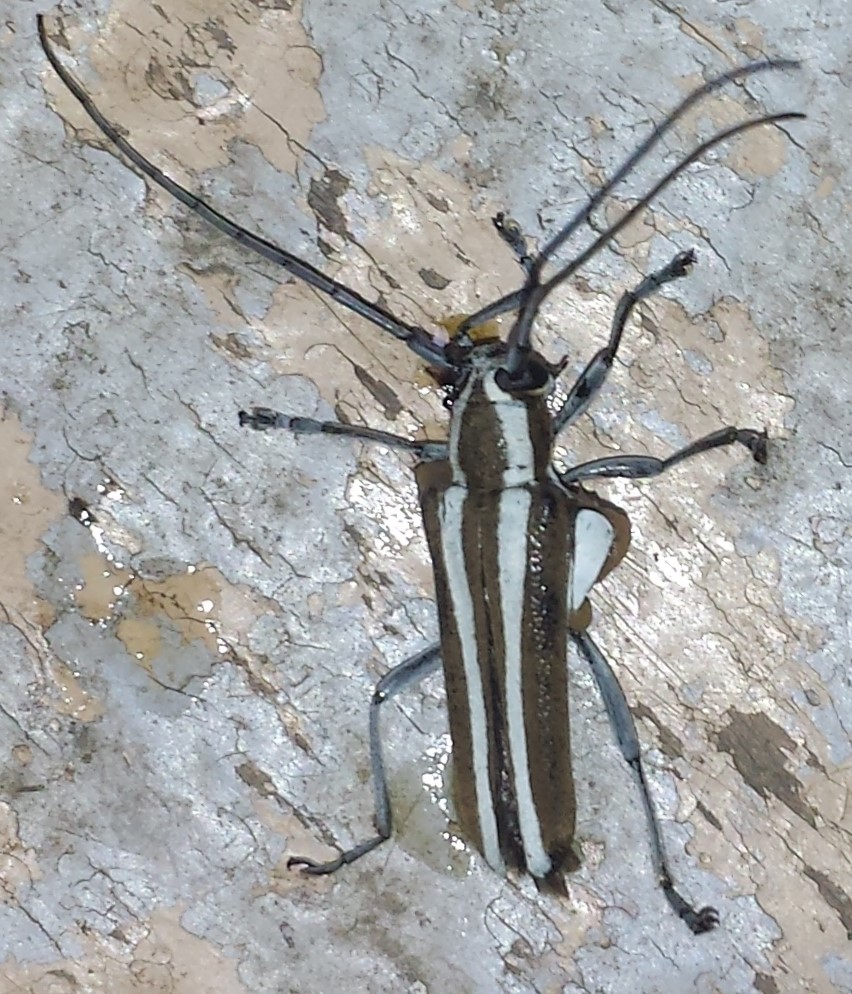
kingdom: Animalia
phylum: Arthropoda
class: Insecta
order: Coleoptera
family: Cerambycidae
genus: Saperda
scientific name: Saperda candida
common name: Round-headed borer
